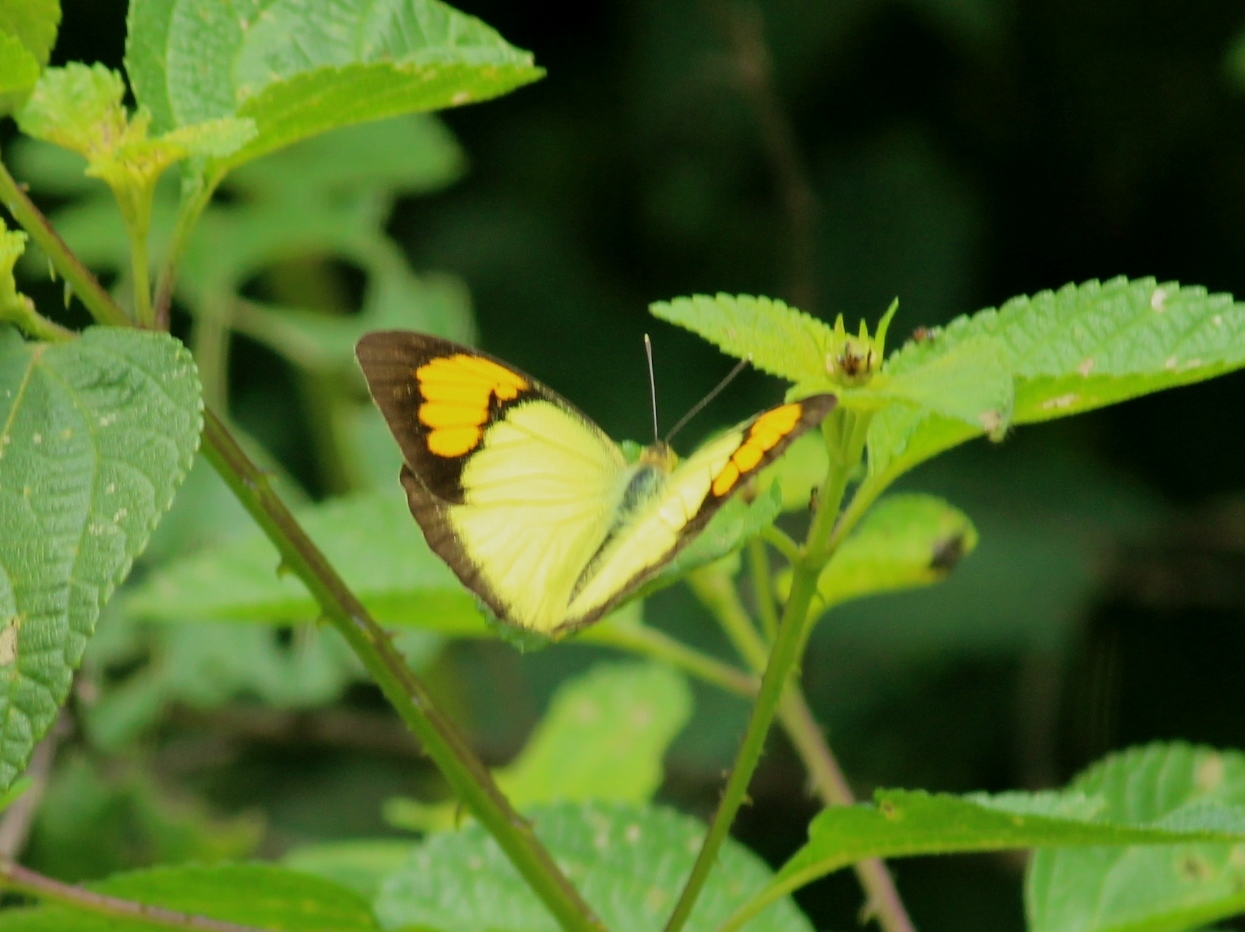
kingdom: Animalia
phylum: Arthropoda
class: Insecta
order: Lepidoptera
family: Pieridae
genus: Ixias
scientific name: Ixias pyrene
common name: Yellow orange tip
